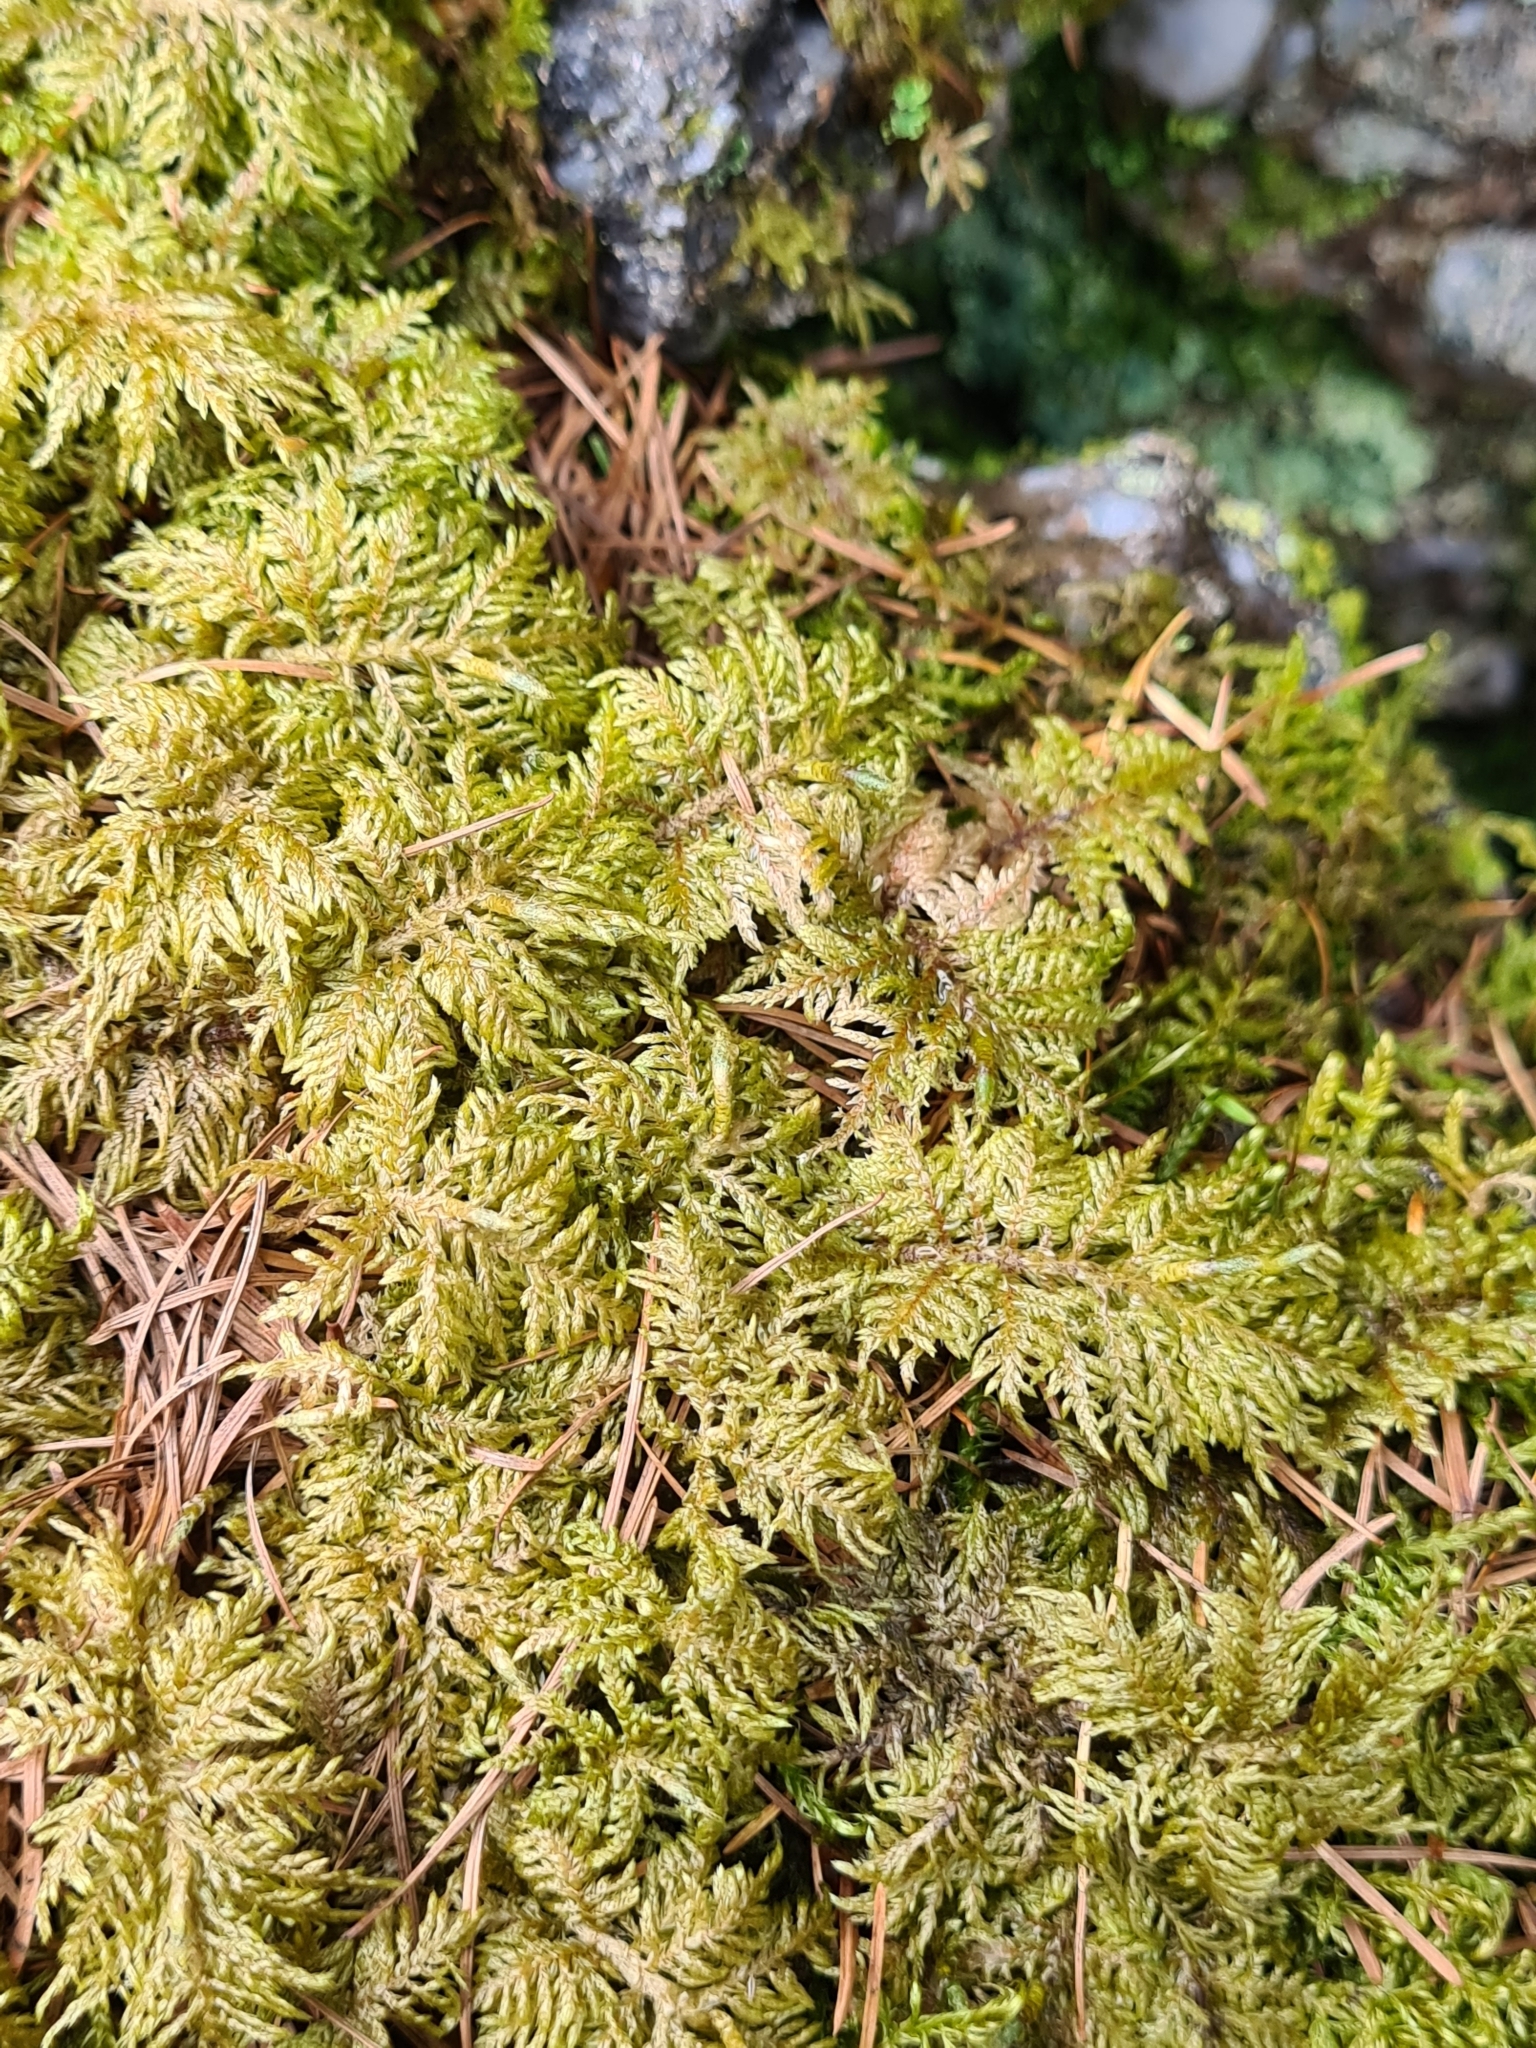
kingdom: Plantae
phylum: Bryophyta
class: Bryopsida
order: Hypnales
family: Hylocomiaceae
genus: Hylocomium
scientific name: Hylocomium splendens
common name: Stairstep moss
